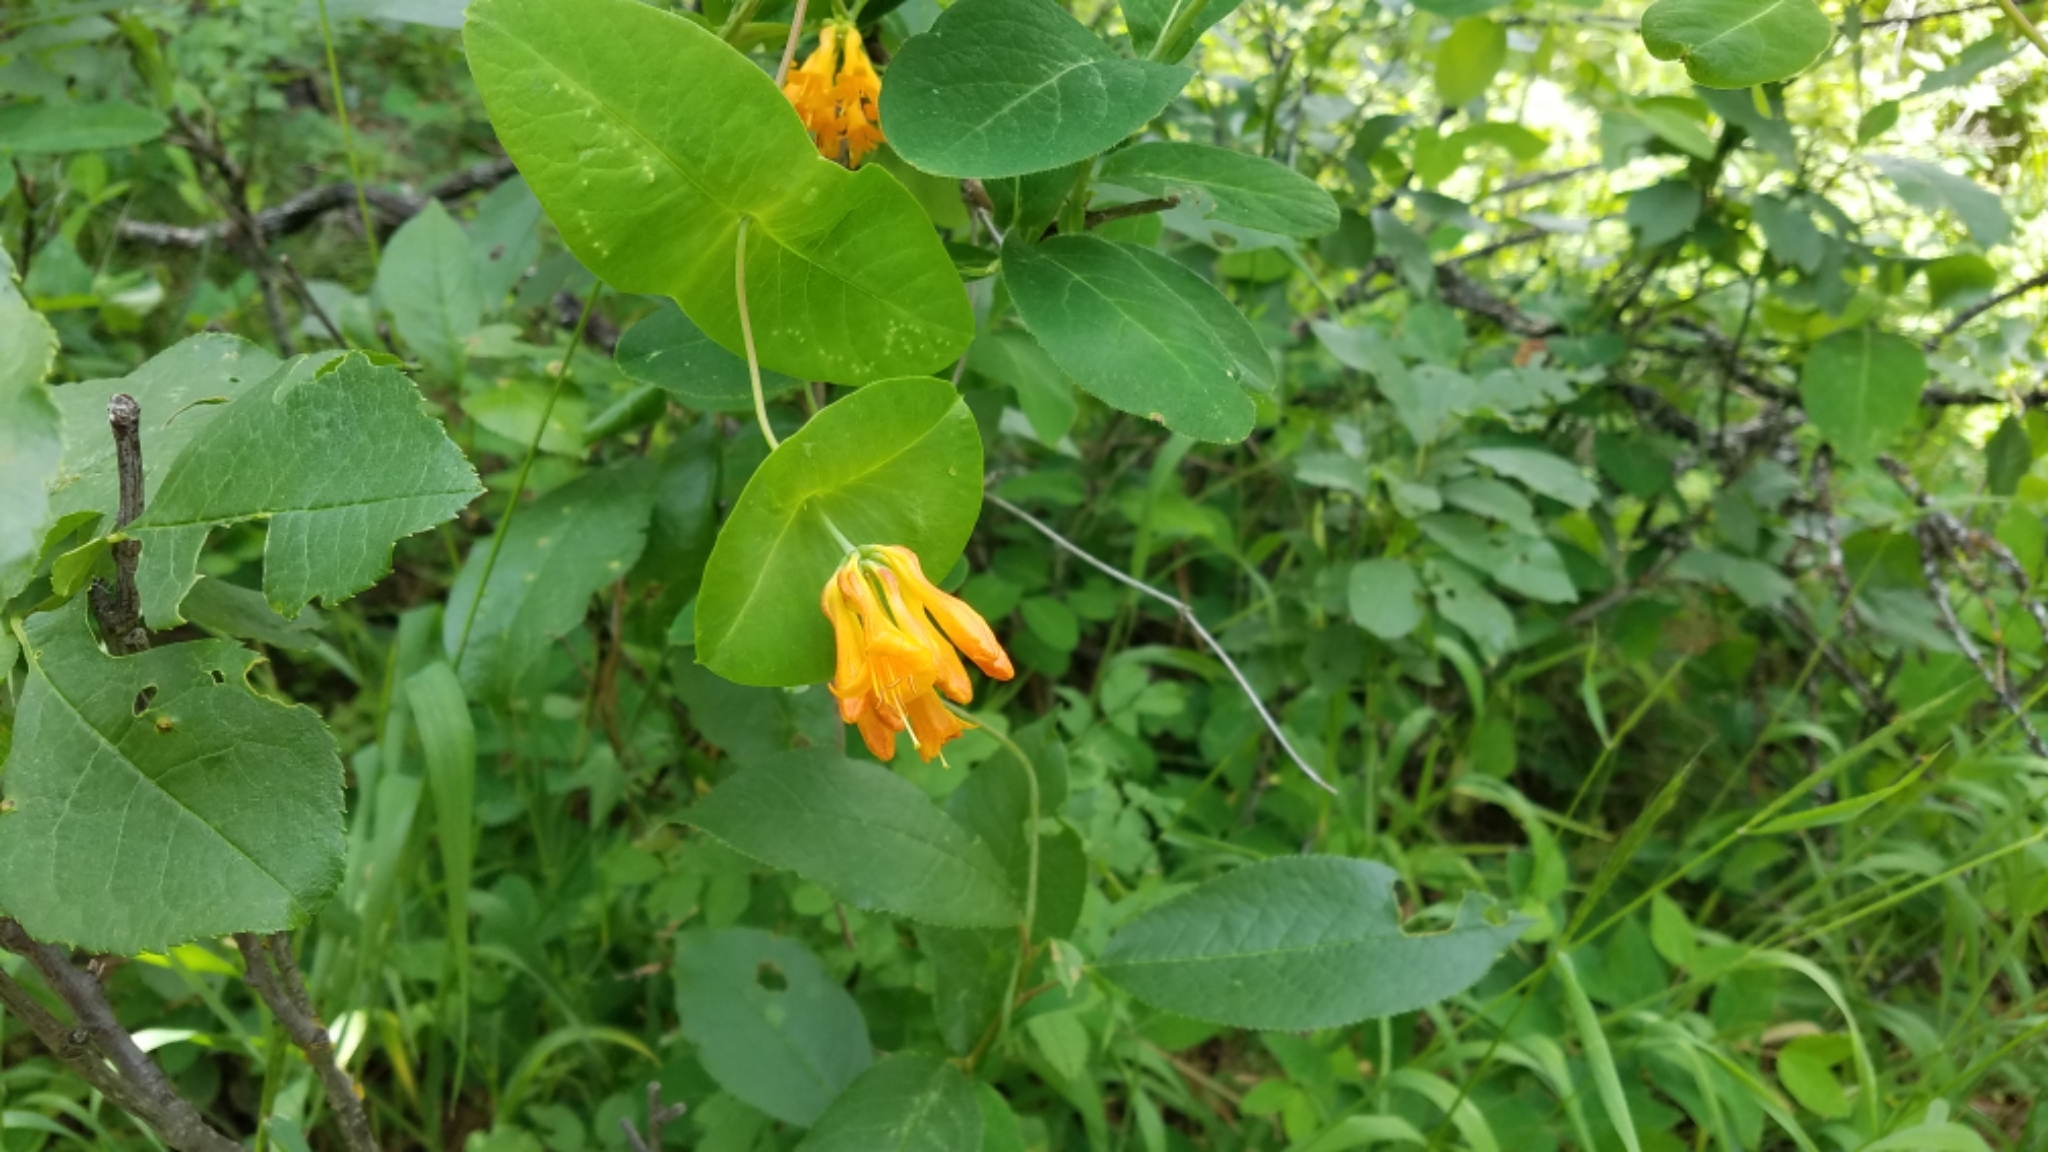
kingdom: Plantae
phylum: Tracheophyta
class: Magnoliopsida
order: Dipsacales
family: Caprifoliaceae
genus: Lonicera
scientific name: Lonicera ciliosa
